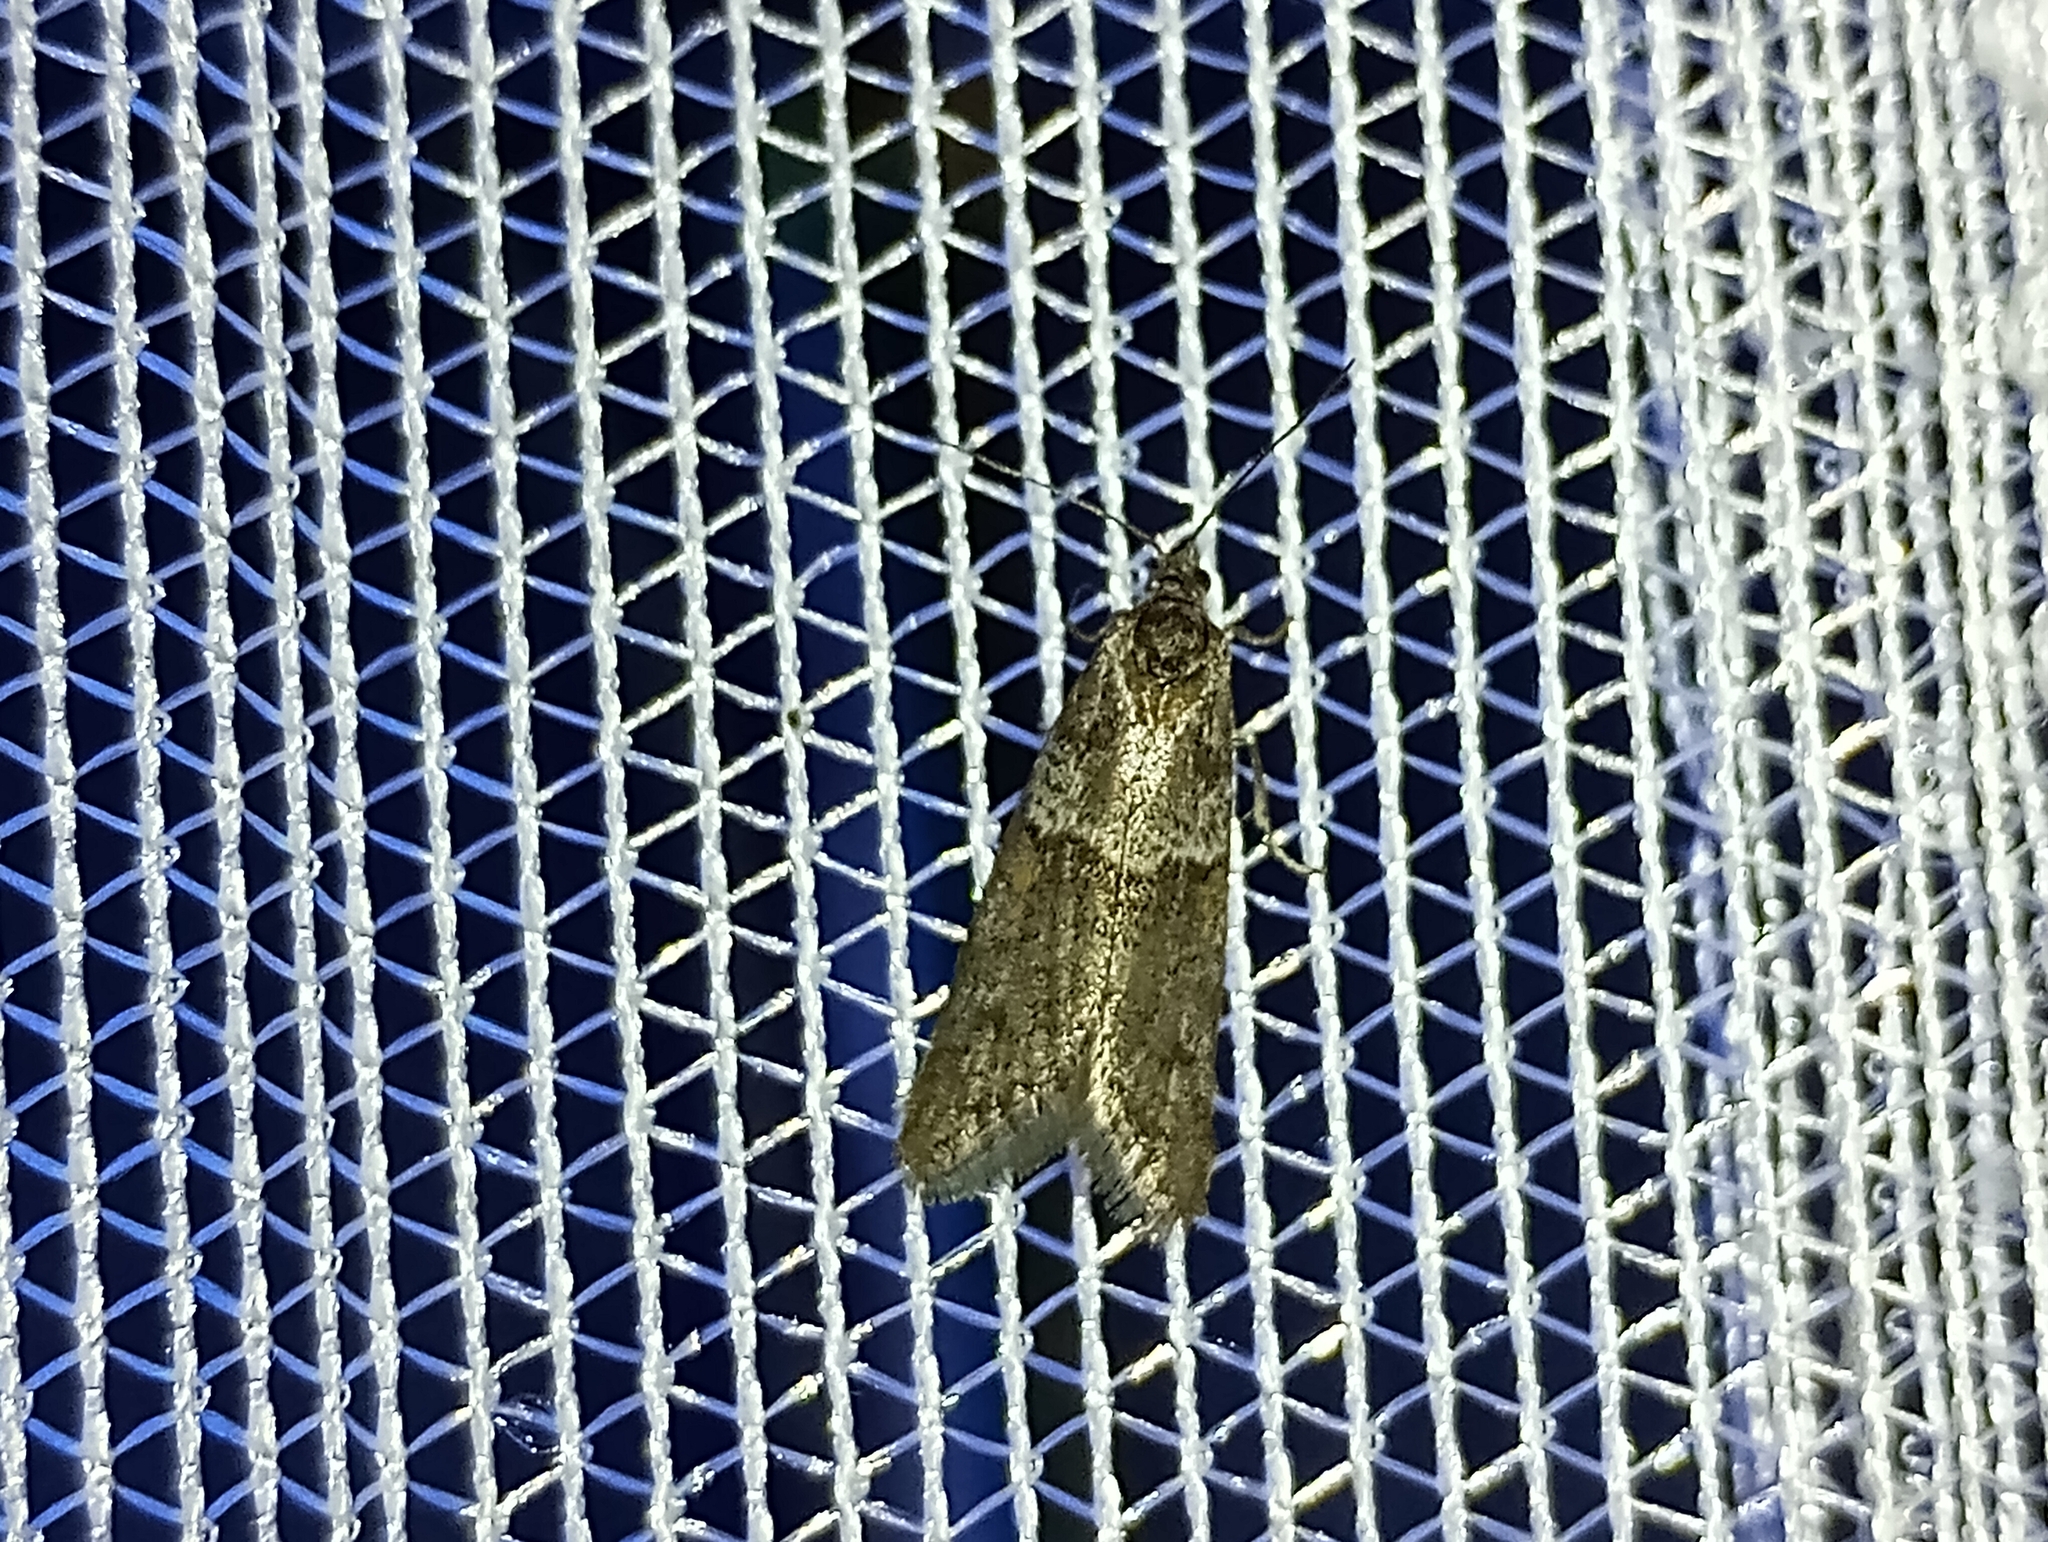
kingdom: Animalia
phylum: Arthropoda
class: Insecta
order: Lepidoptera
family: Tortricidae
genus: Tortricodes
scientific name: Tortricodes alternella
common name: Winter shade
